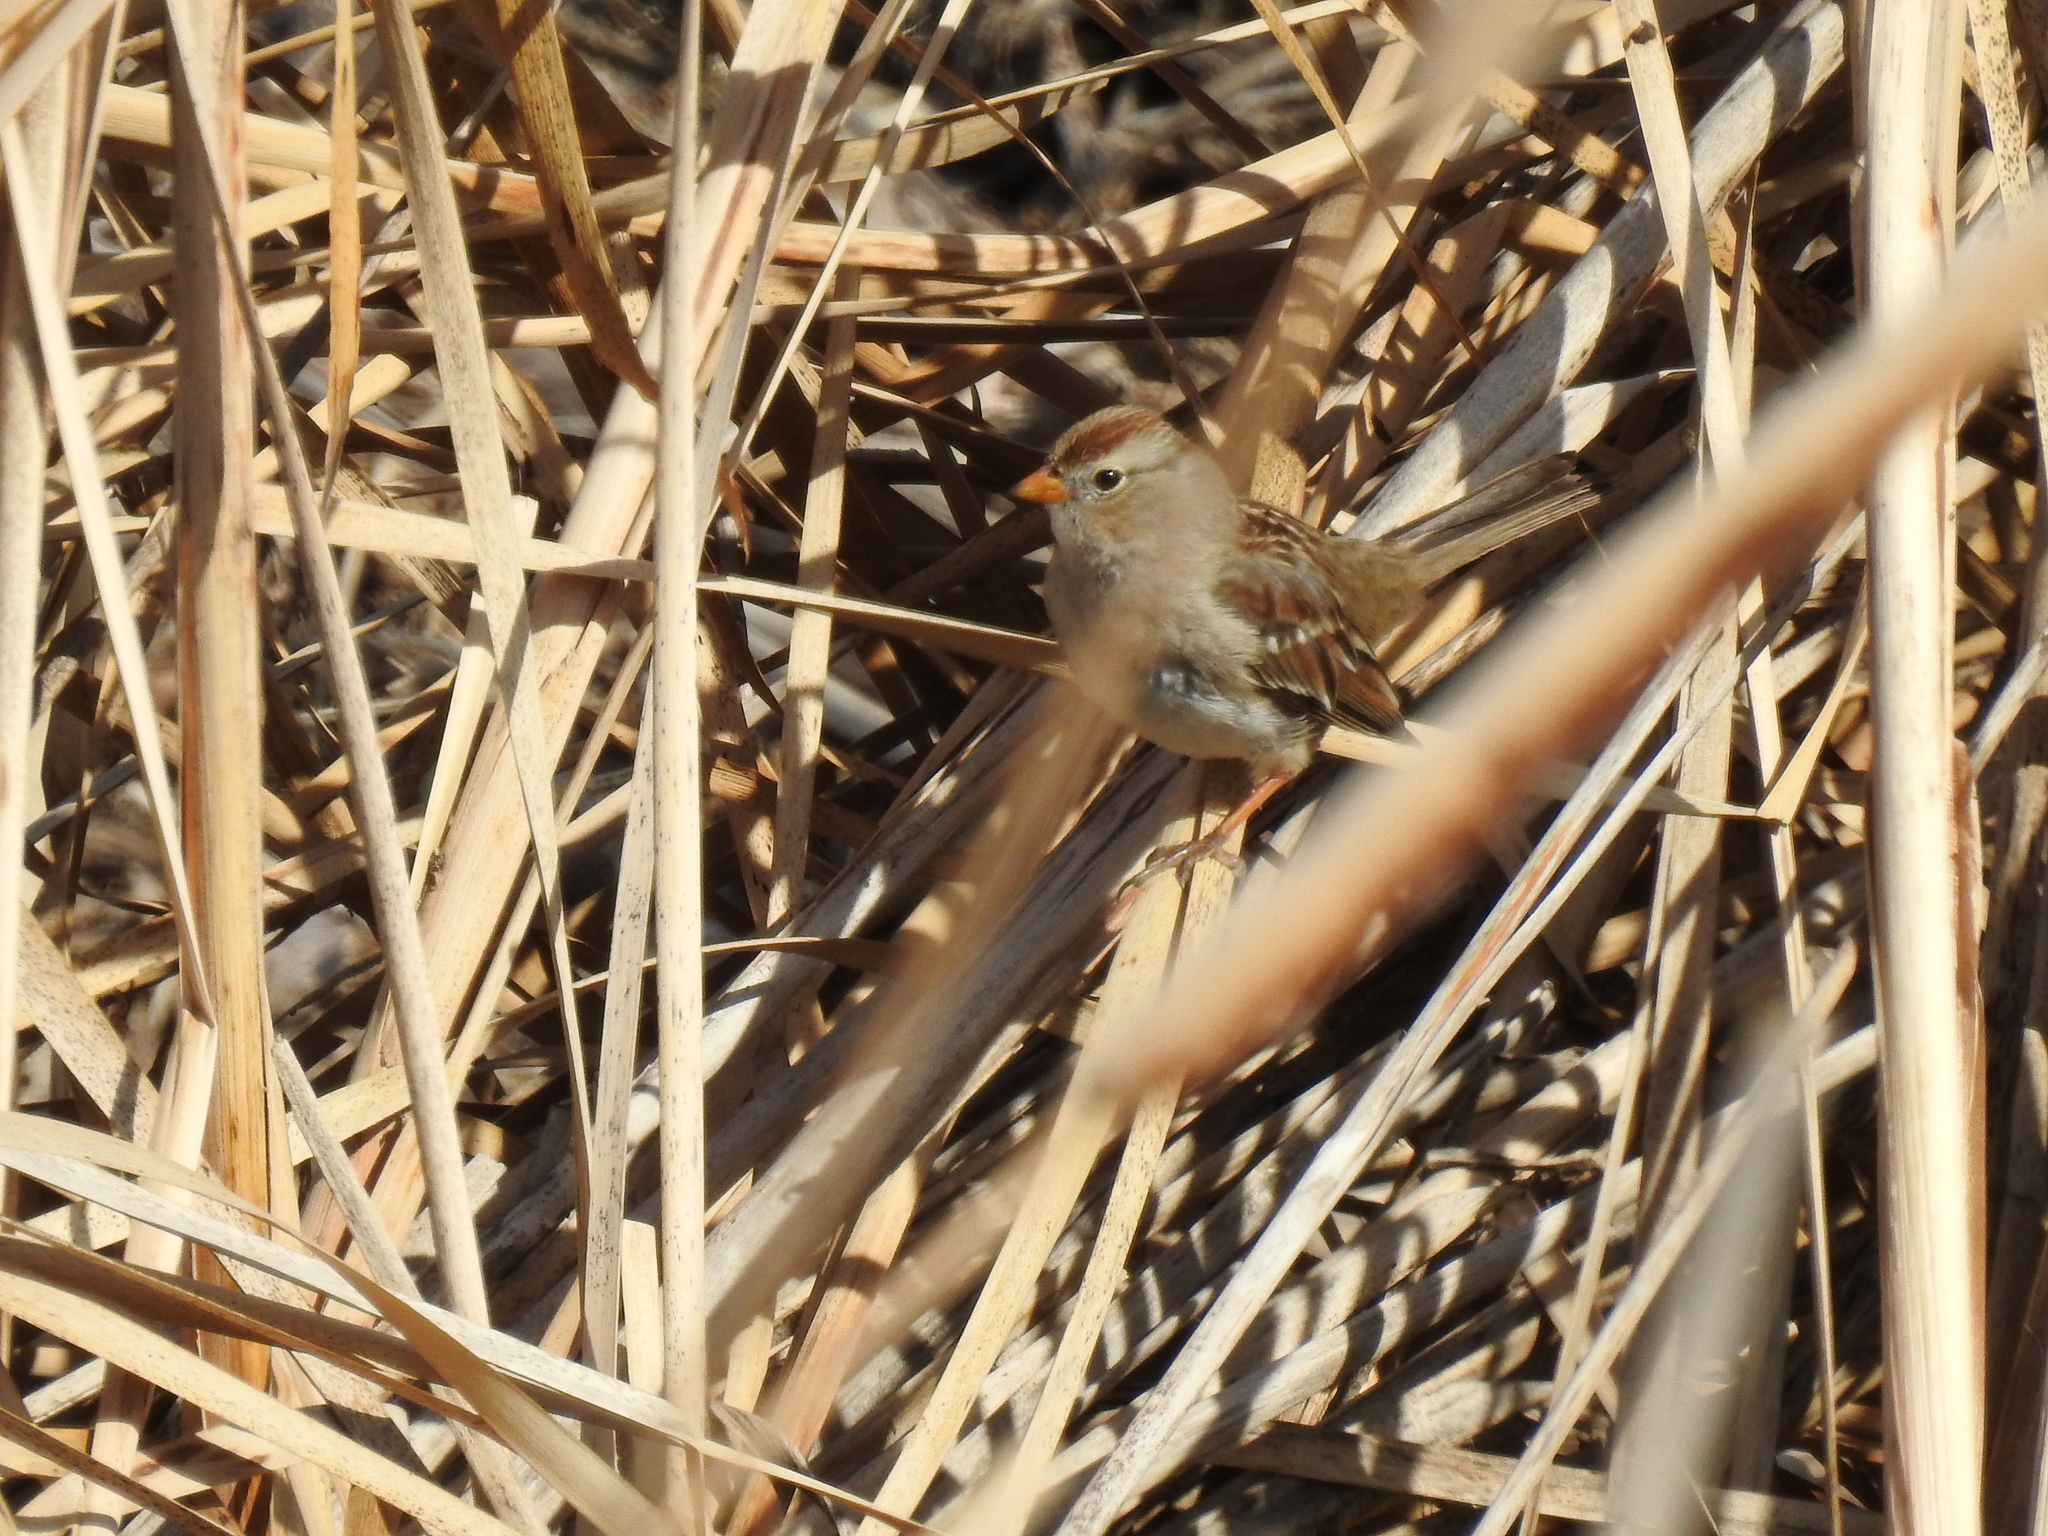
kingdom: Animalia
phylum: Chordata
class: Aves
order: Passeriformes
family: Passerellidae
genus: Zonotrichia
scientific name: Zonotrichia leucophrys
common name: White-crowned sparrow
